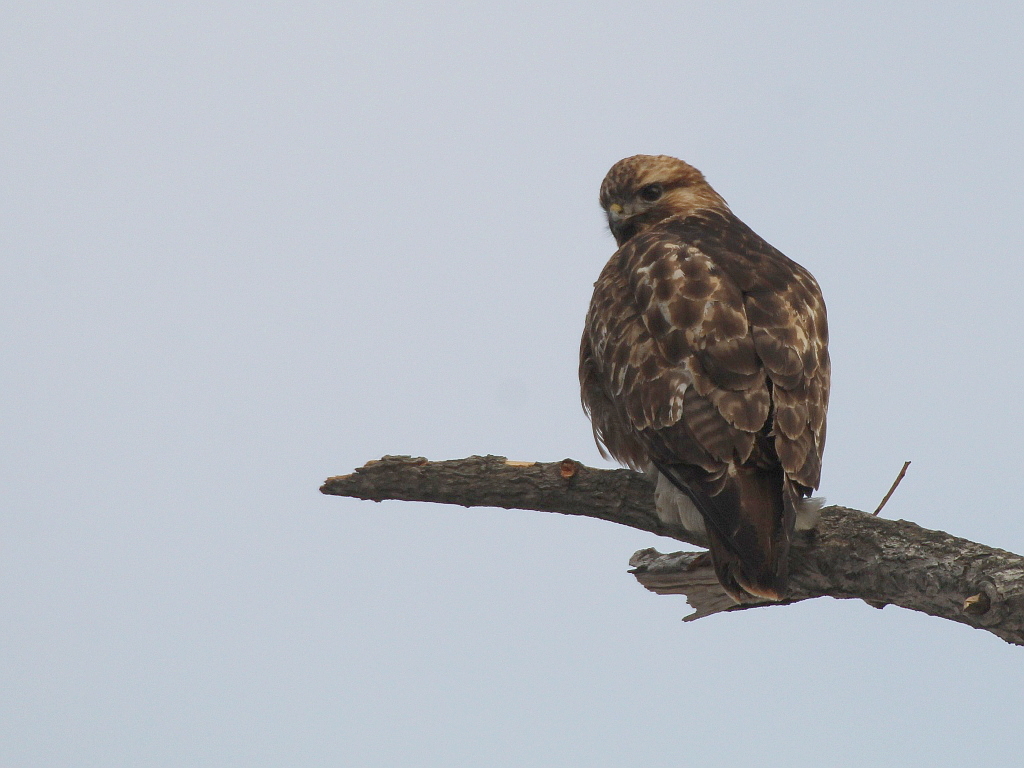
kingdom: Animalia
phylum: Chordata
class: Aves
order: Accipitriformes
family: Accipitridae
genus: Buteo
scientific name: Buteo japonicus
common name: Eastern buzzard
